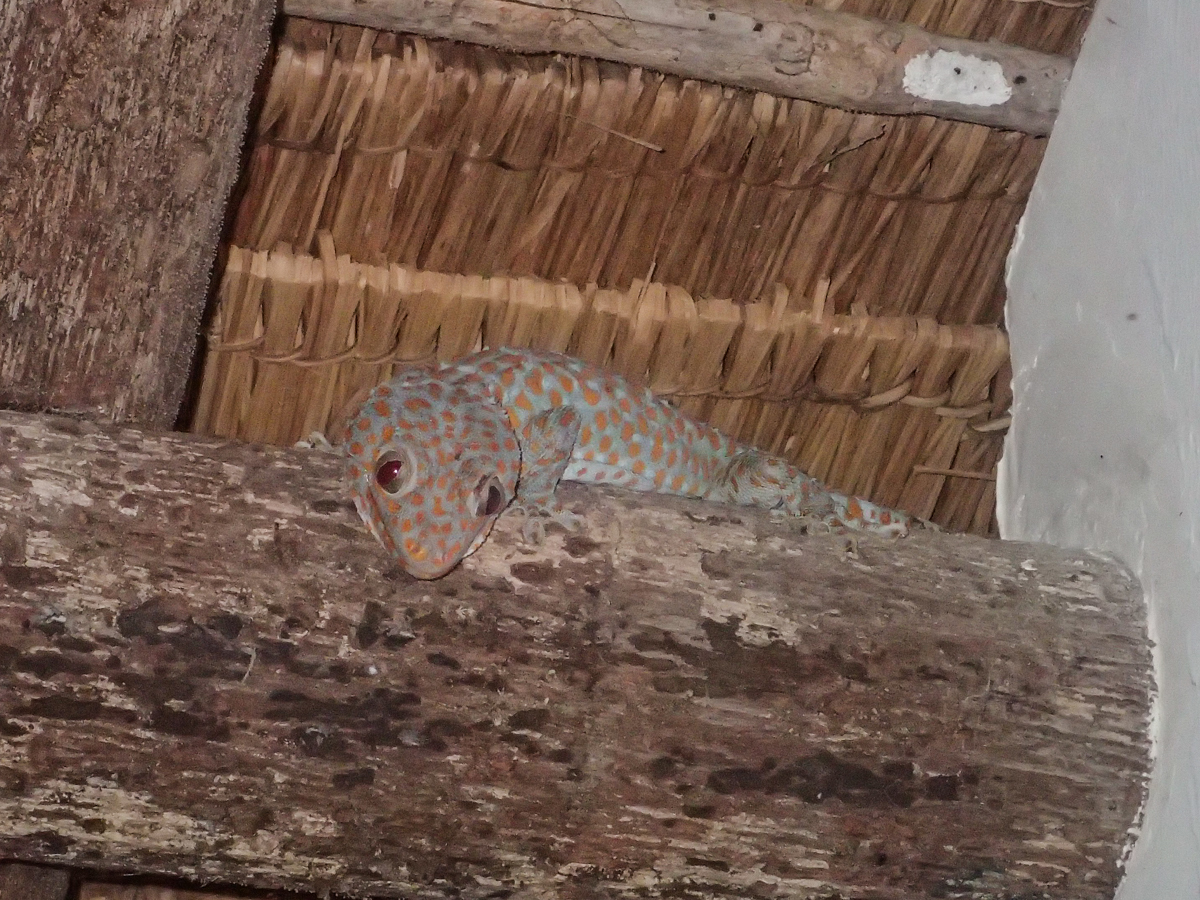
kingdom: Animalia
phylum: Chordata
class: Squamata
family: Gekkonidae
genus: Gekko
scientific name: Gekko gecko
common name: Tokay gecko
